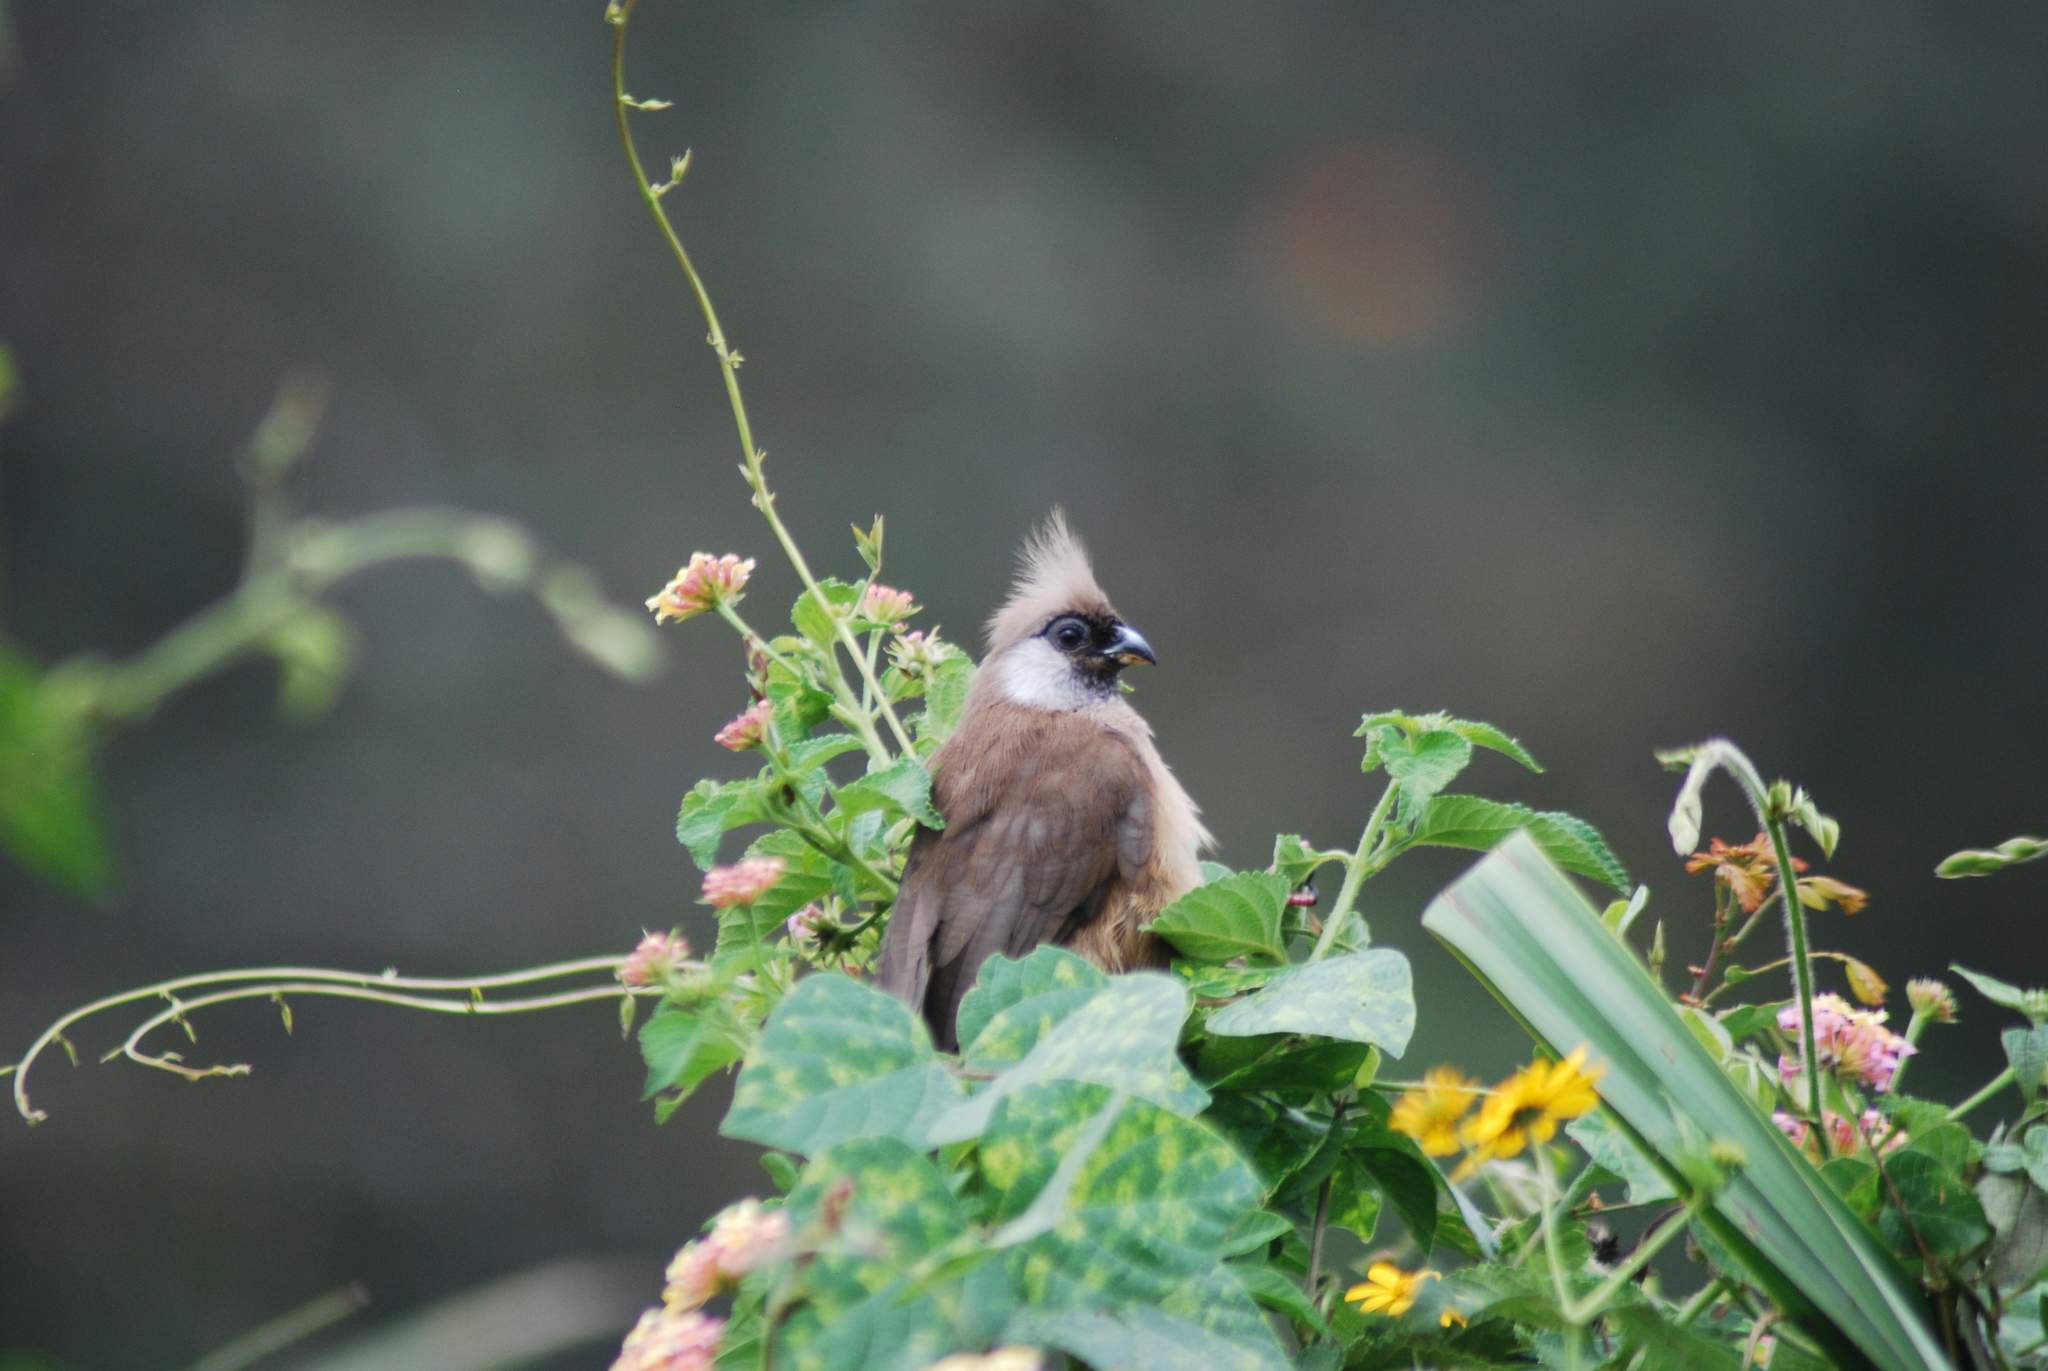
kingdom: Animalia
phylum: Chordata
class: Aves
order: Coliiformes
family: Coliidae
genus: Colius
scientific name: Colius striatus
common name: Speckled mousebird
